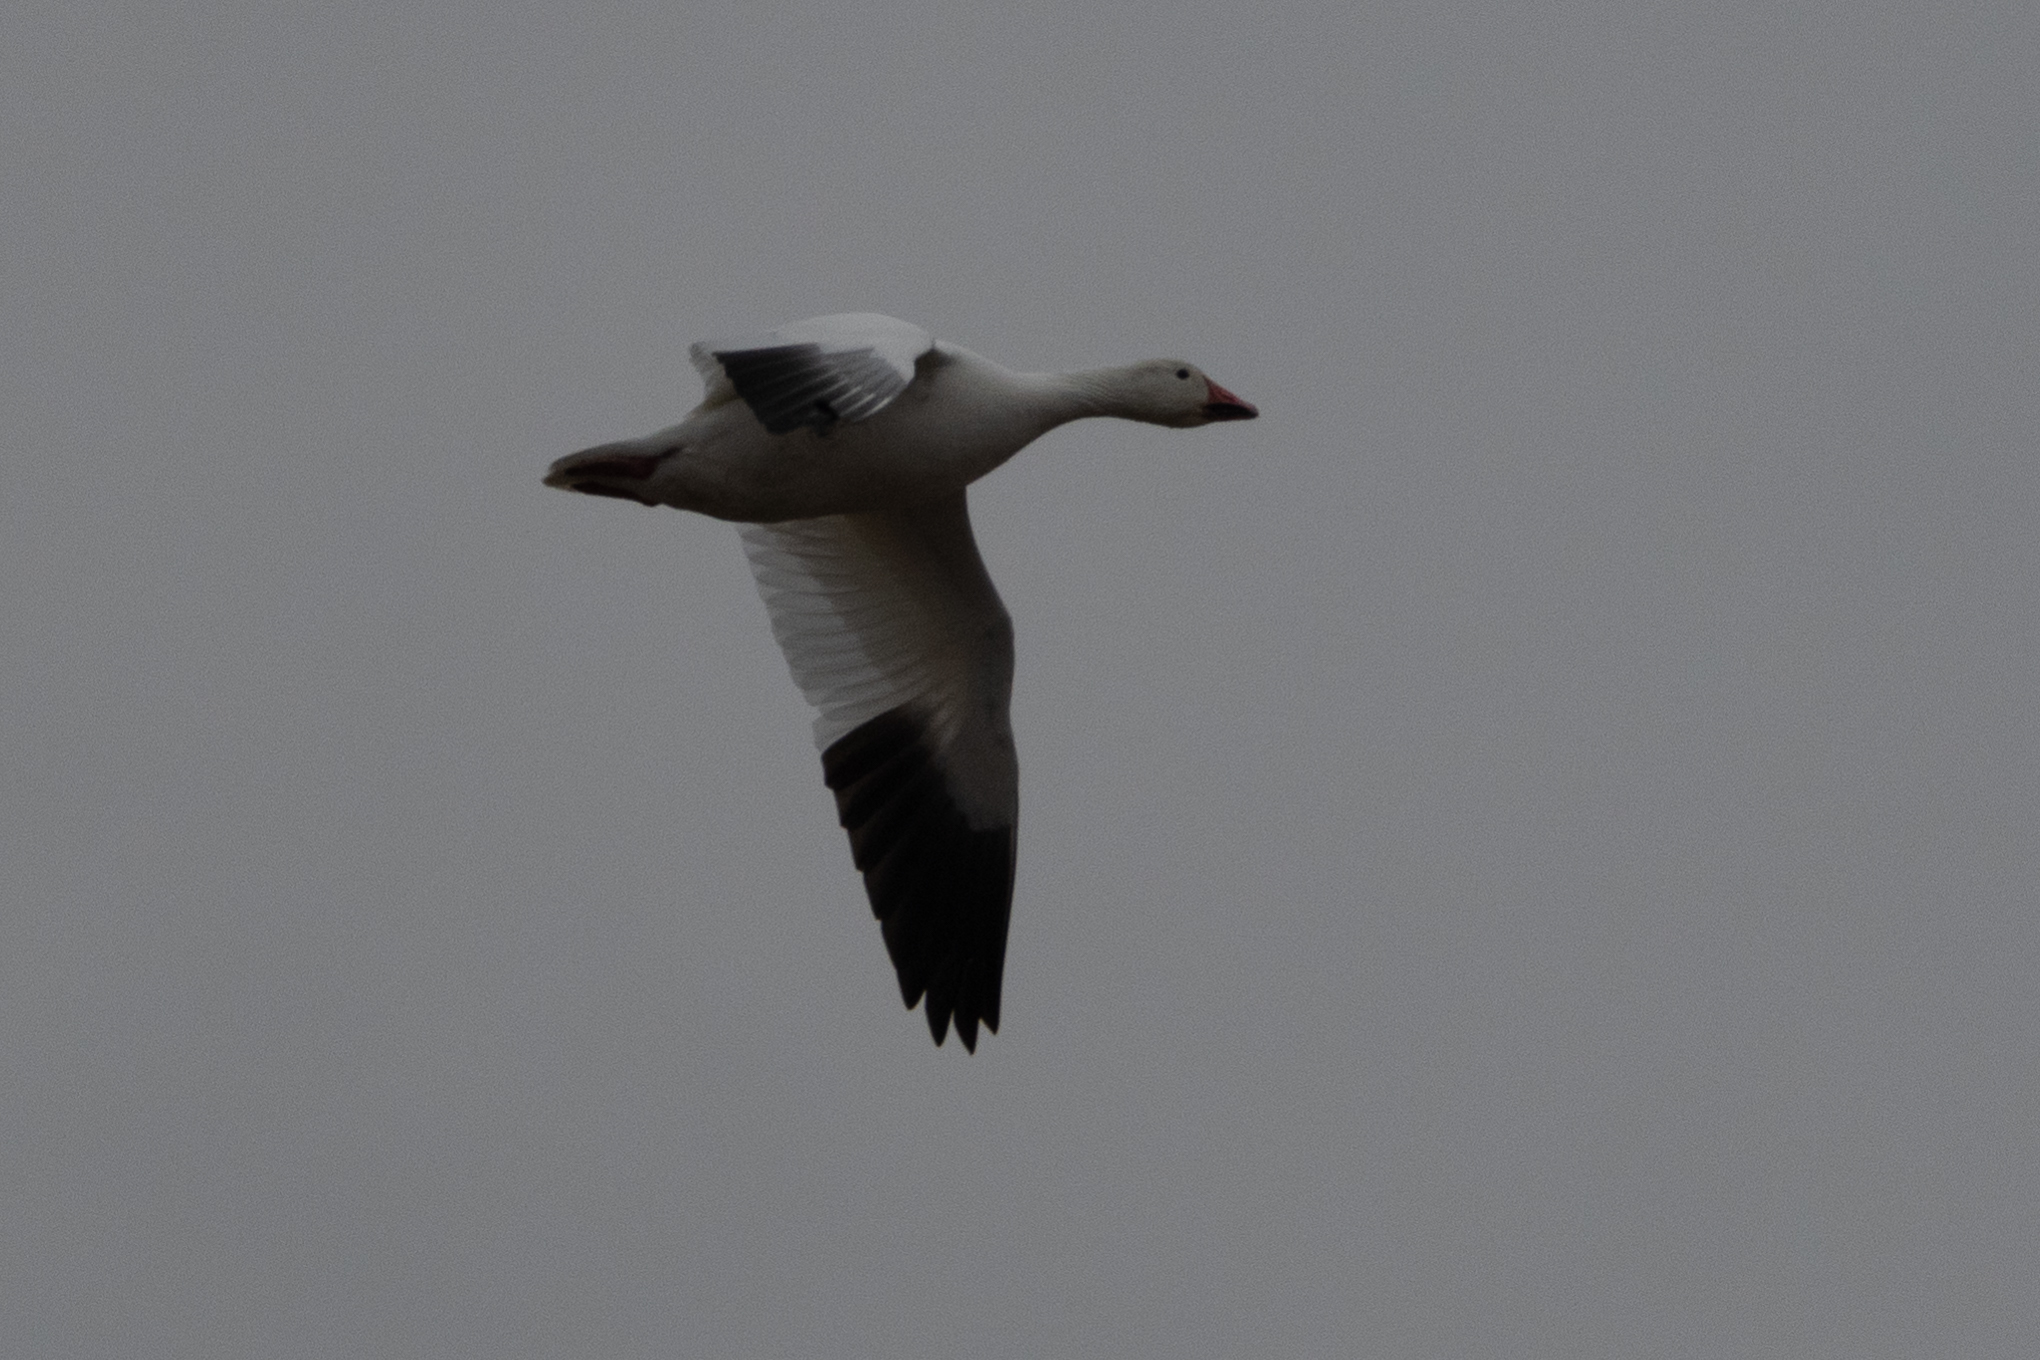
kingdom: Animalia
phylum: Chordata
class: Aves
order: Anseriformes
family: Anatidae
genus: Anser
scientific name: Anser caerulescens
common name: Snow goose
